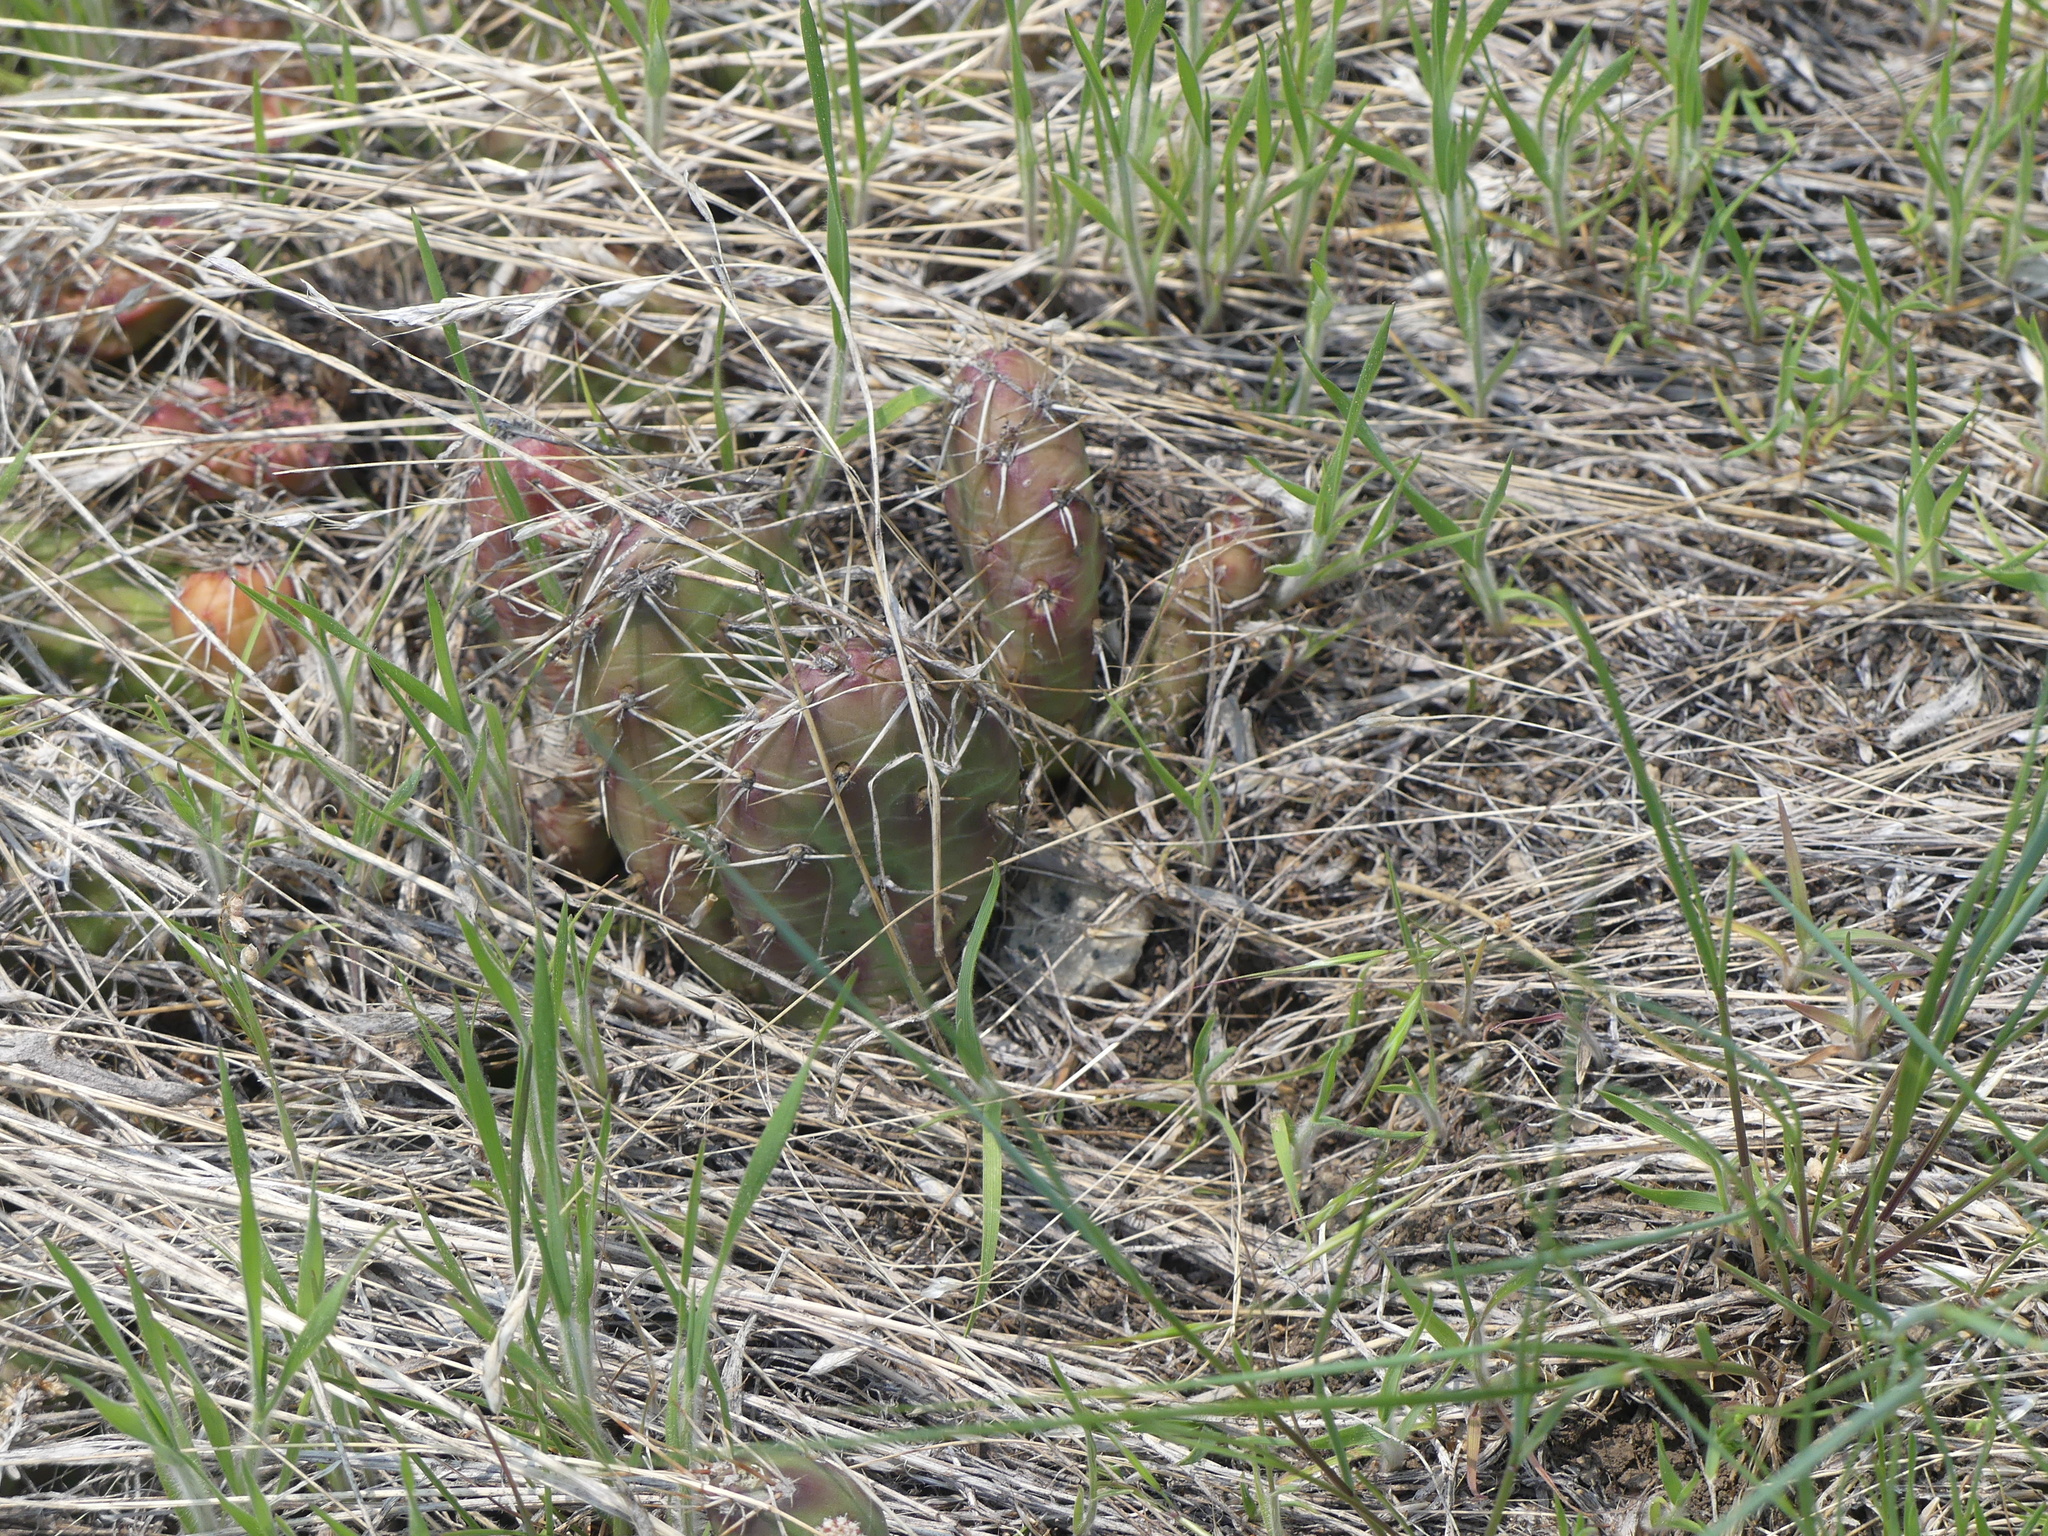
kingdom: Plantae
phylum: Tracheophyta
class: Magnoliopsida
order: Caryophyllales
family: Cactaceae
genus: Opuntia
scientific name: Opuntia fragilis
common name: Brittle cactus
